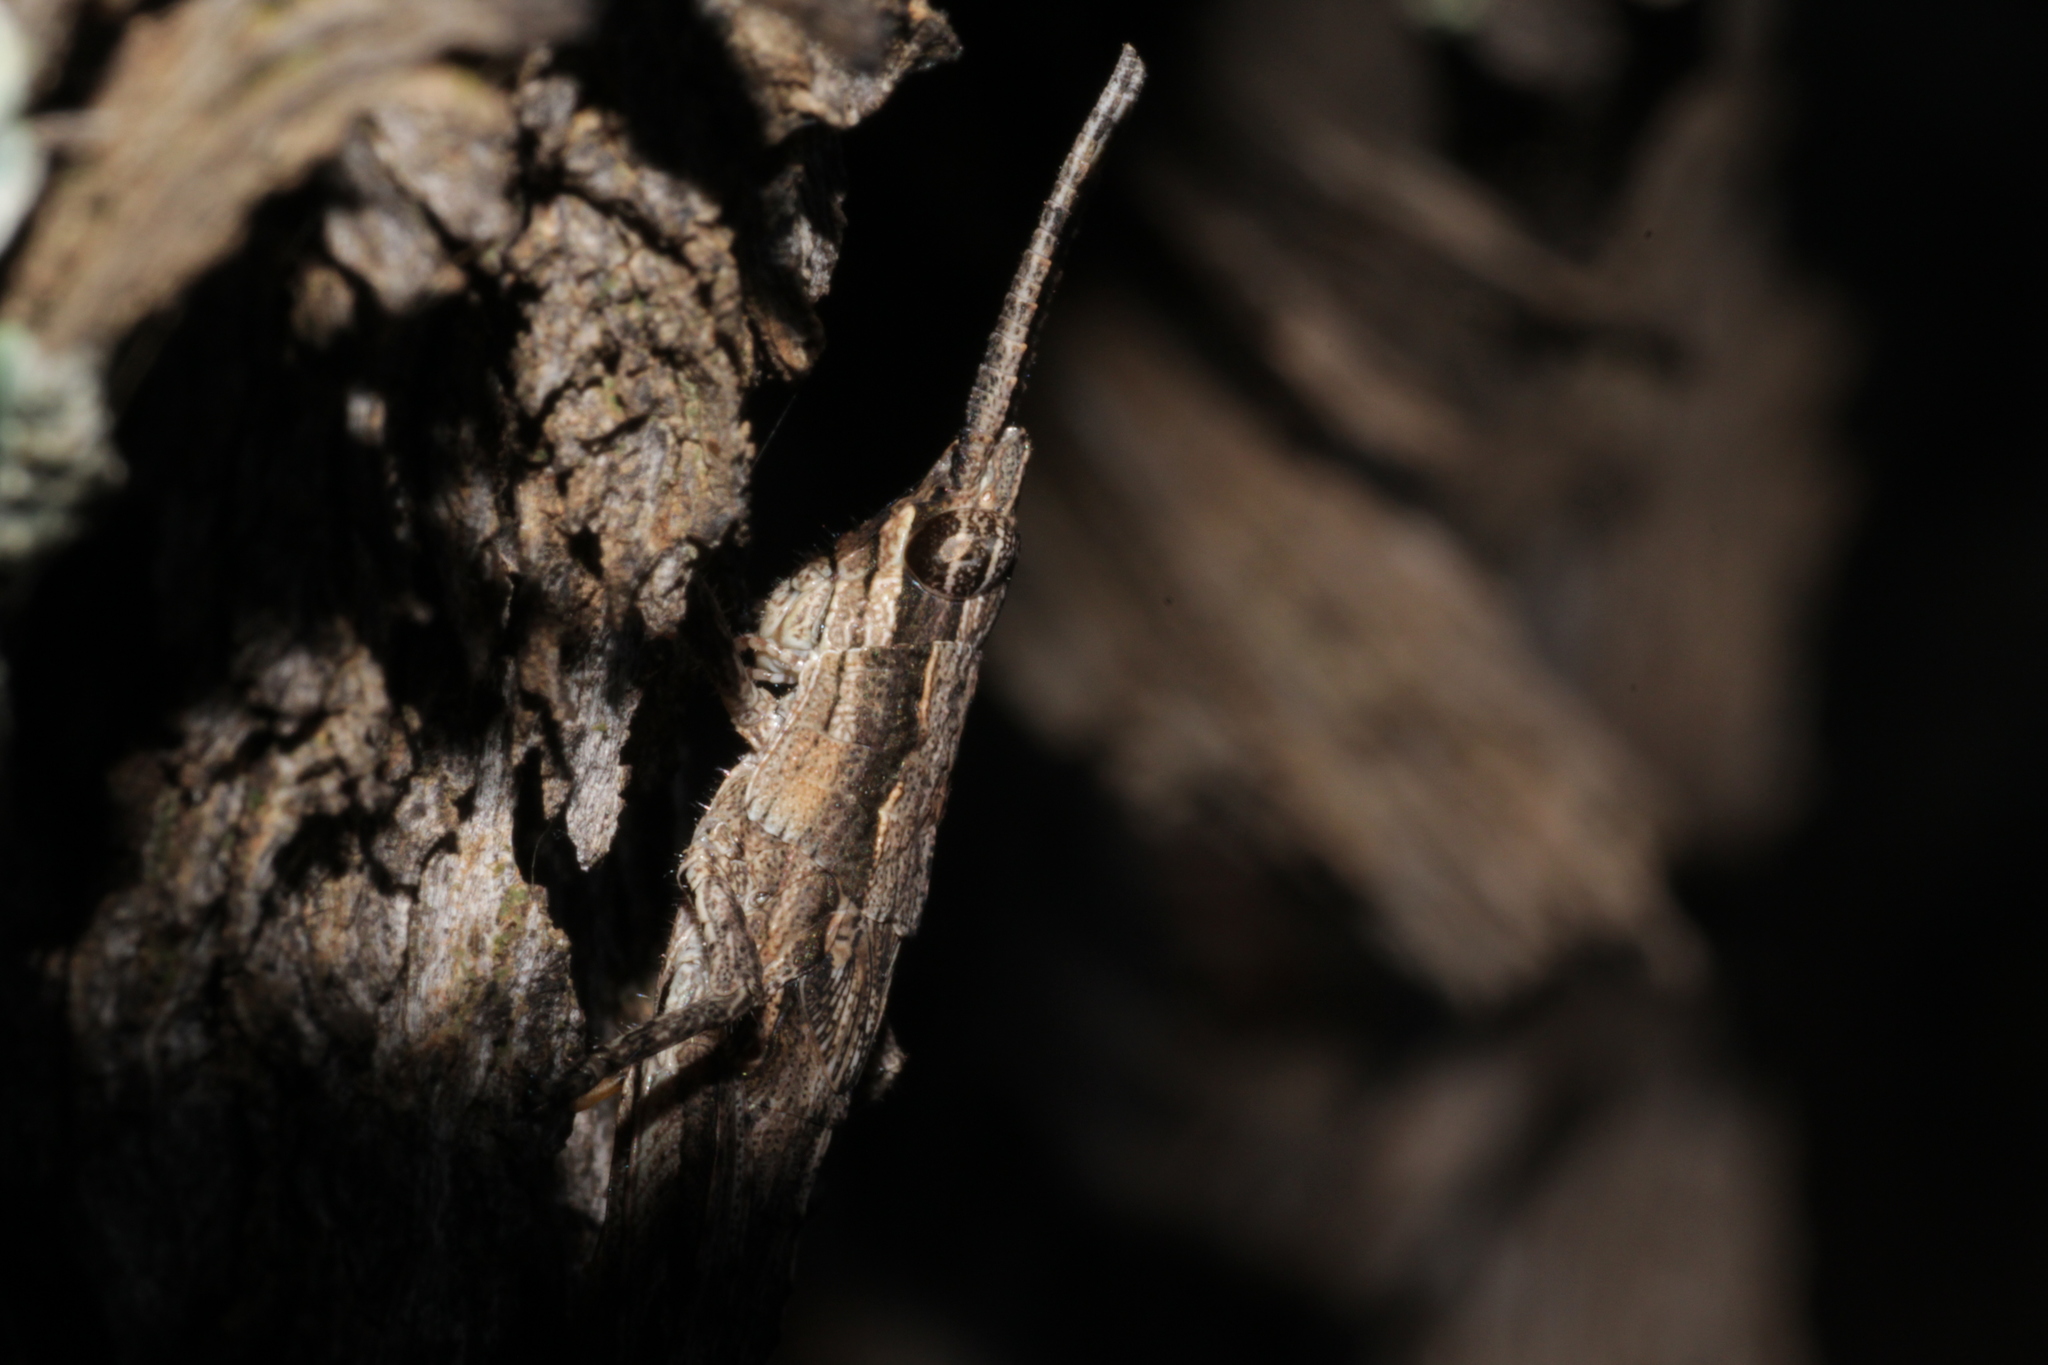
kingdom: Animalia
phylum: Arthropoda
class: Insecta
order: Orthoptera
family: Acrididae
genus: Coryphistes
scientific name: Coryphistes ruricola
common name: Bark-mimicking grasshopper
